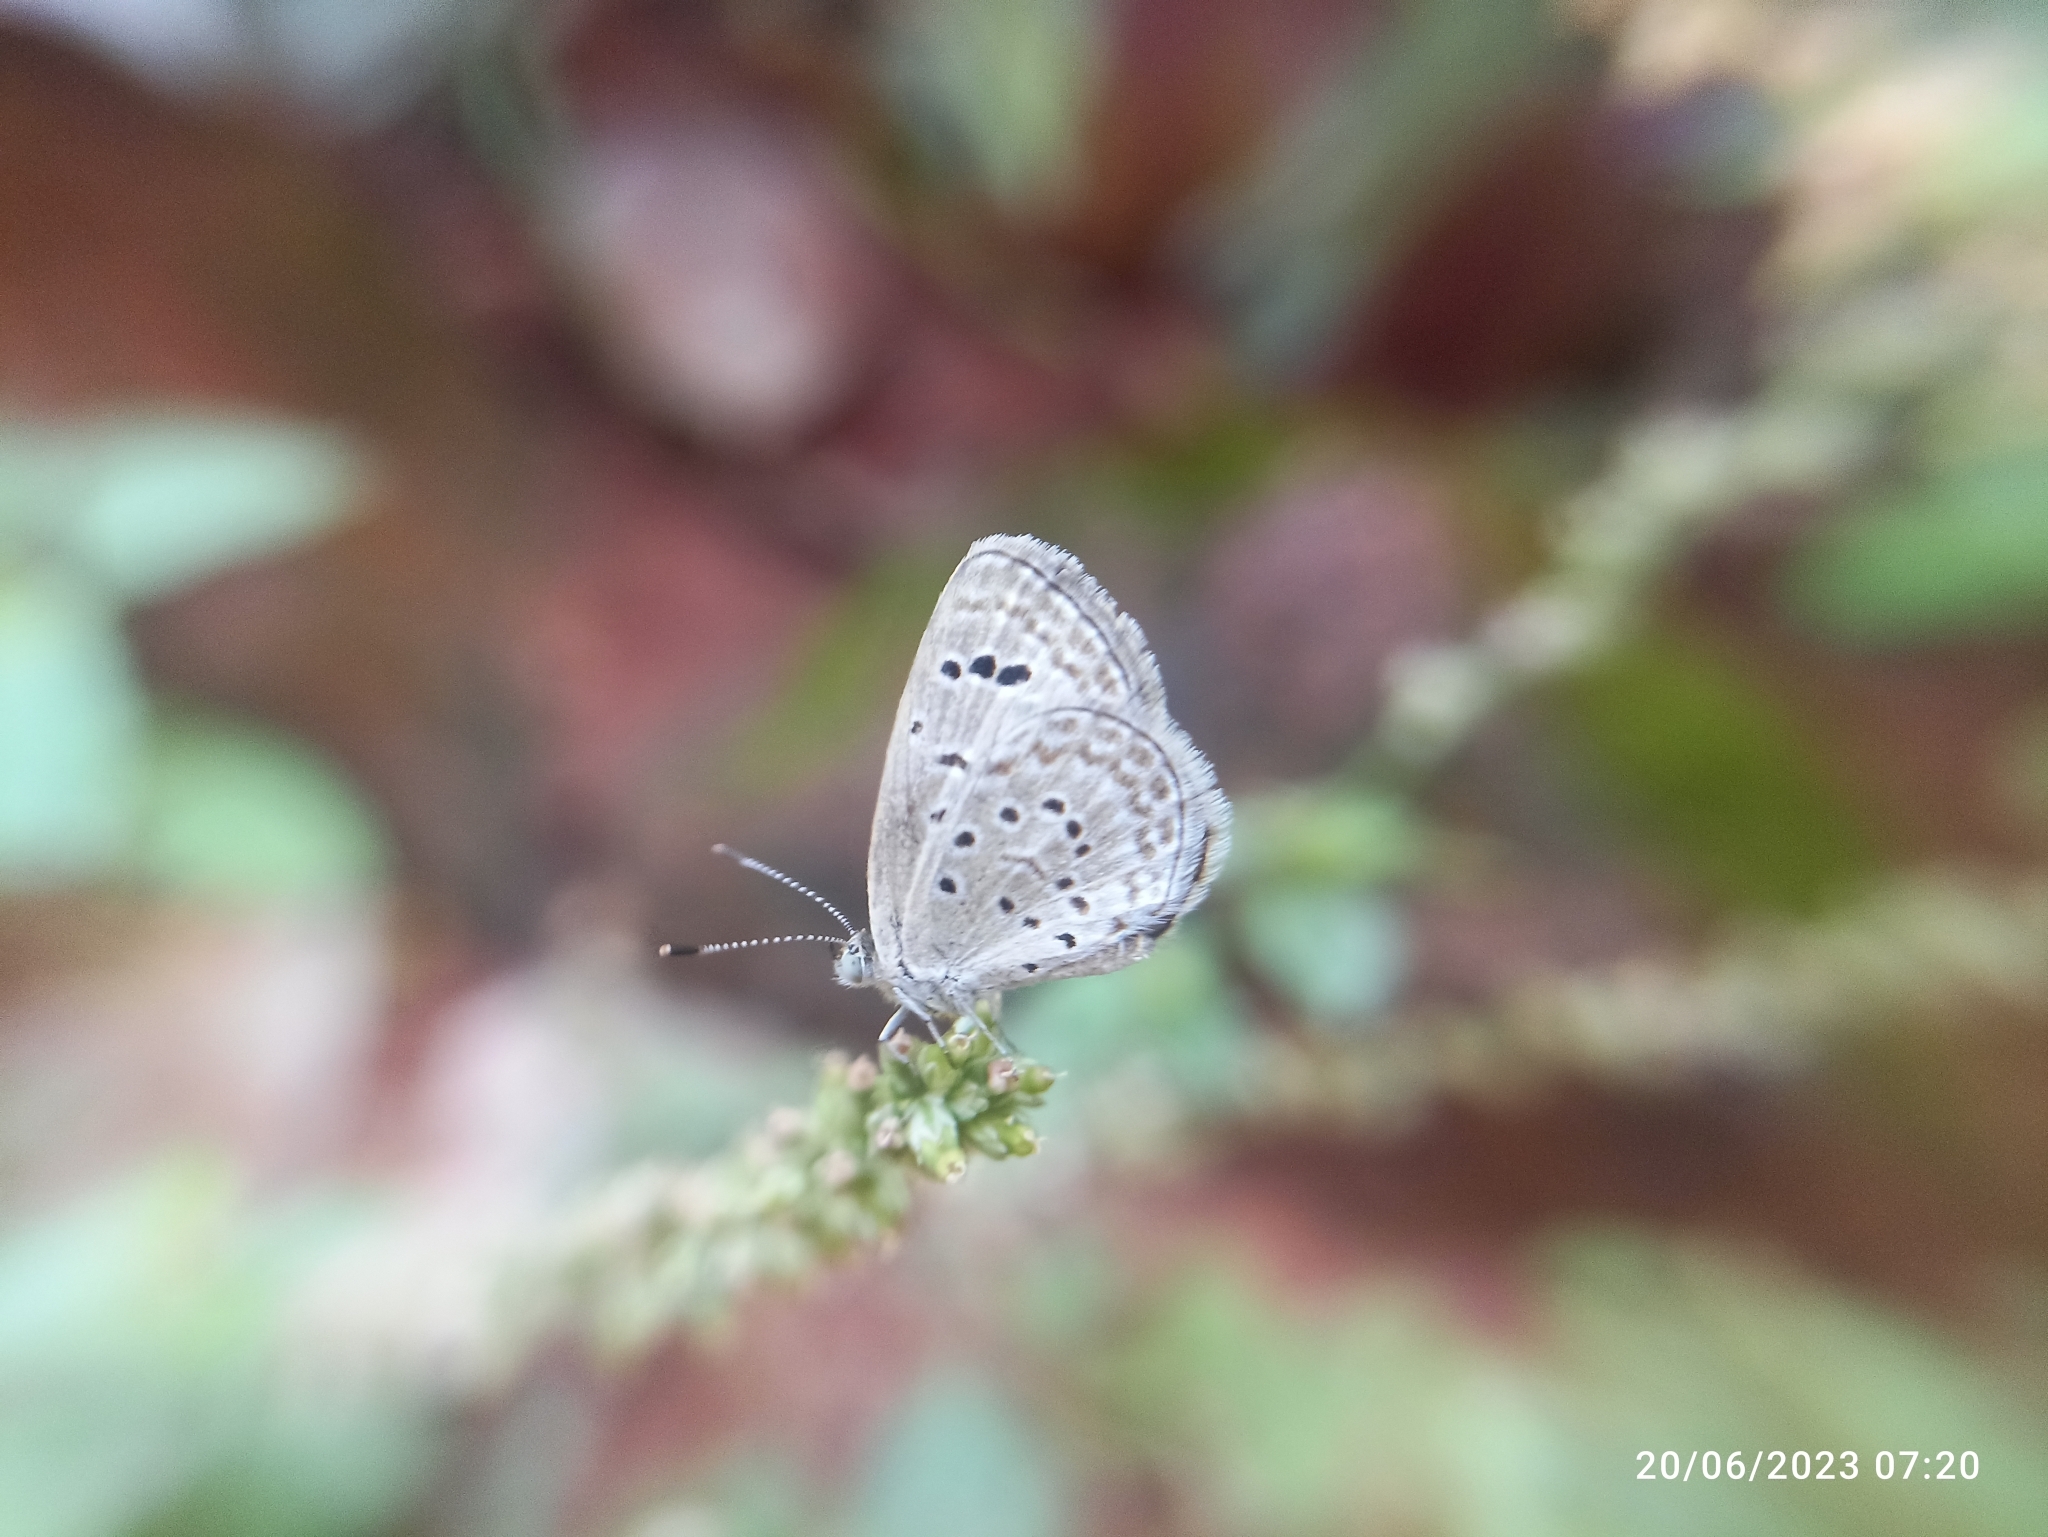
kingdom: Animalia
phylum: Arthropoda
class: Insecta
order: Lepidoptera
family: Lycaenidae
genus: Zizeeria
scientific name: Zizeeria karsandra
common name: Dark grass blue
